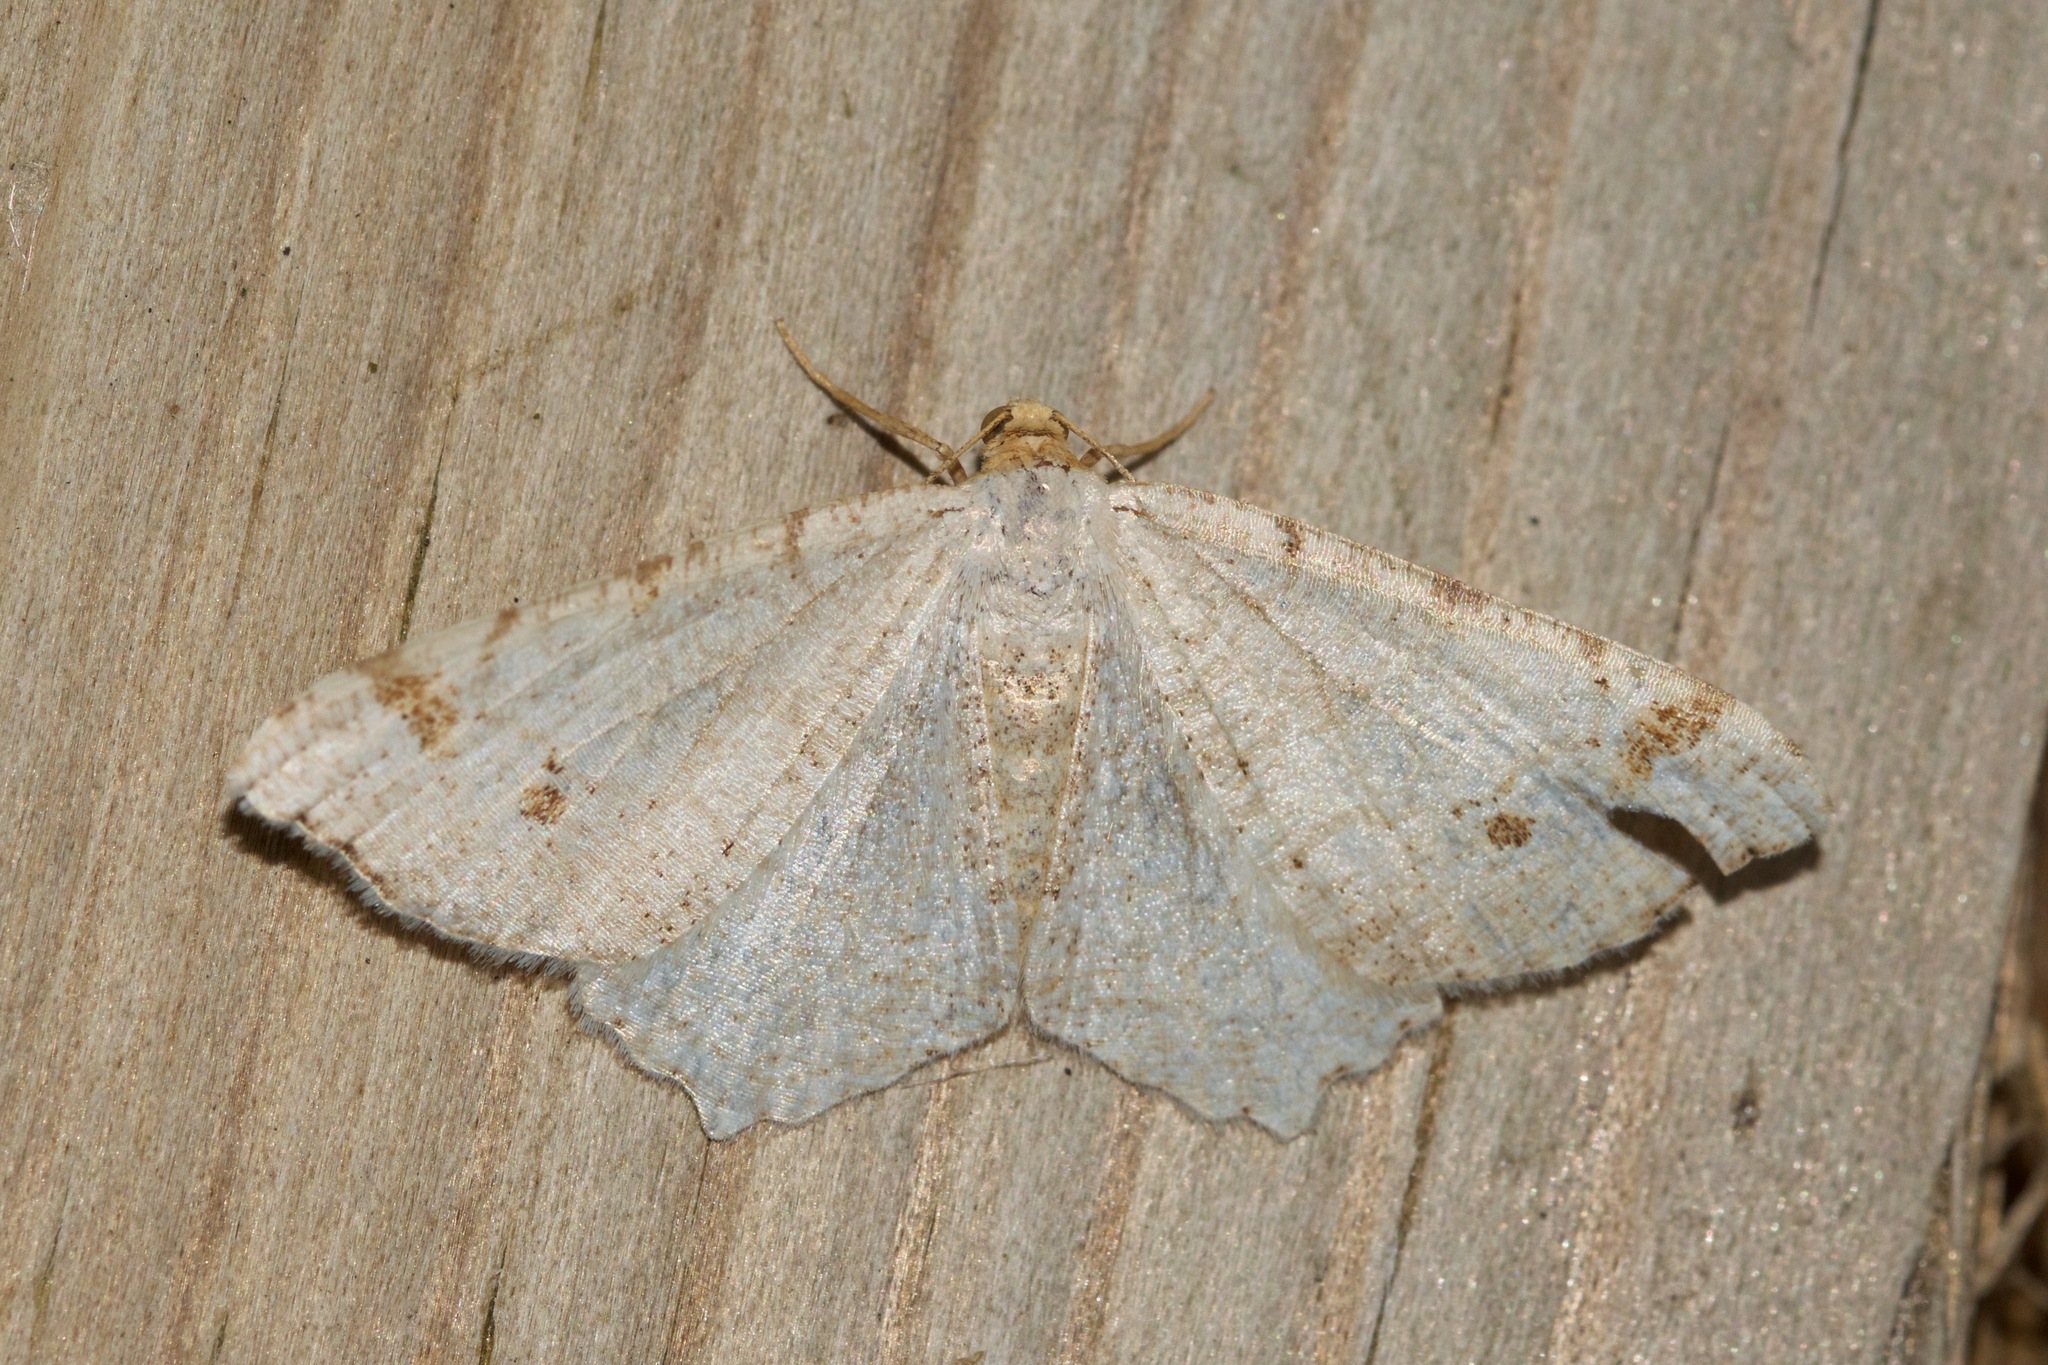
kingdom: Animalia
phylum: Arthropoda
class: Insecta
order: Lepidoptera
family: Geometridae
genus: Macaria
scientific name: Macaria bisignata
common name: Red-headed inchworm
